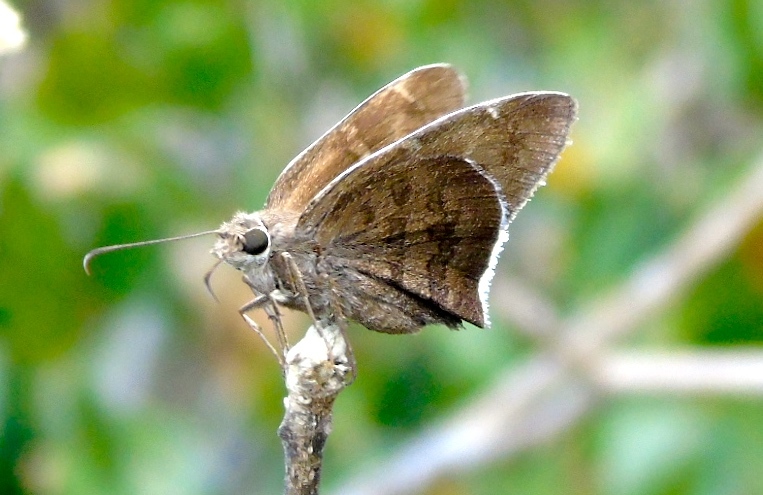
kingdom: Animalia
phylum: Arthropoda
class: Insecta
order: Lepidoptera
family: Hesperiidae
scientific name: Hesperiidae
